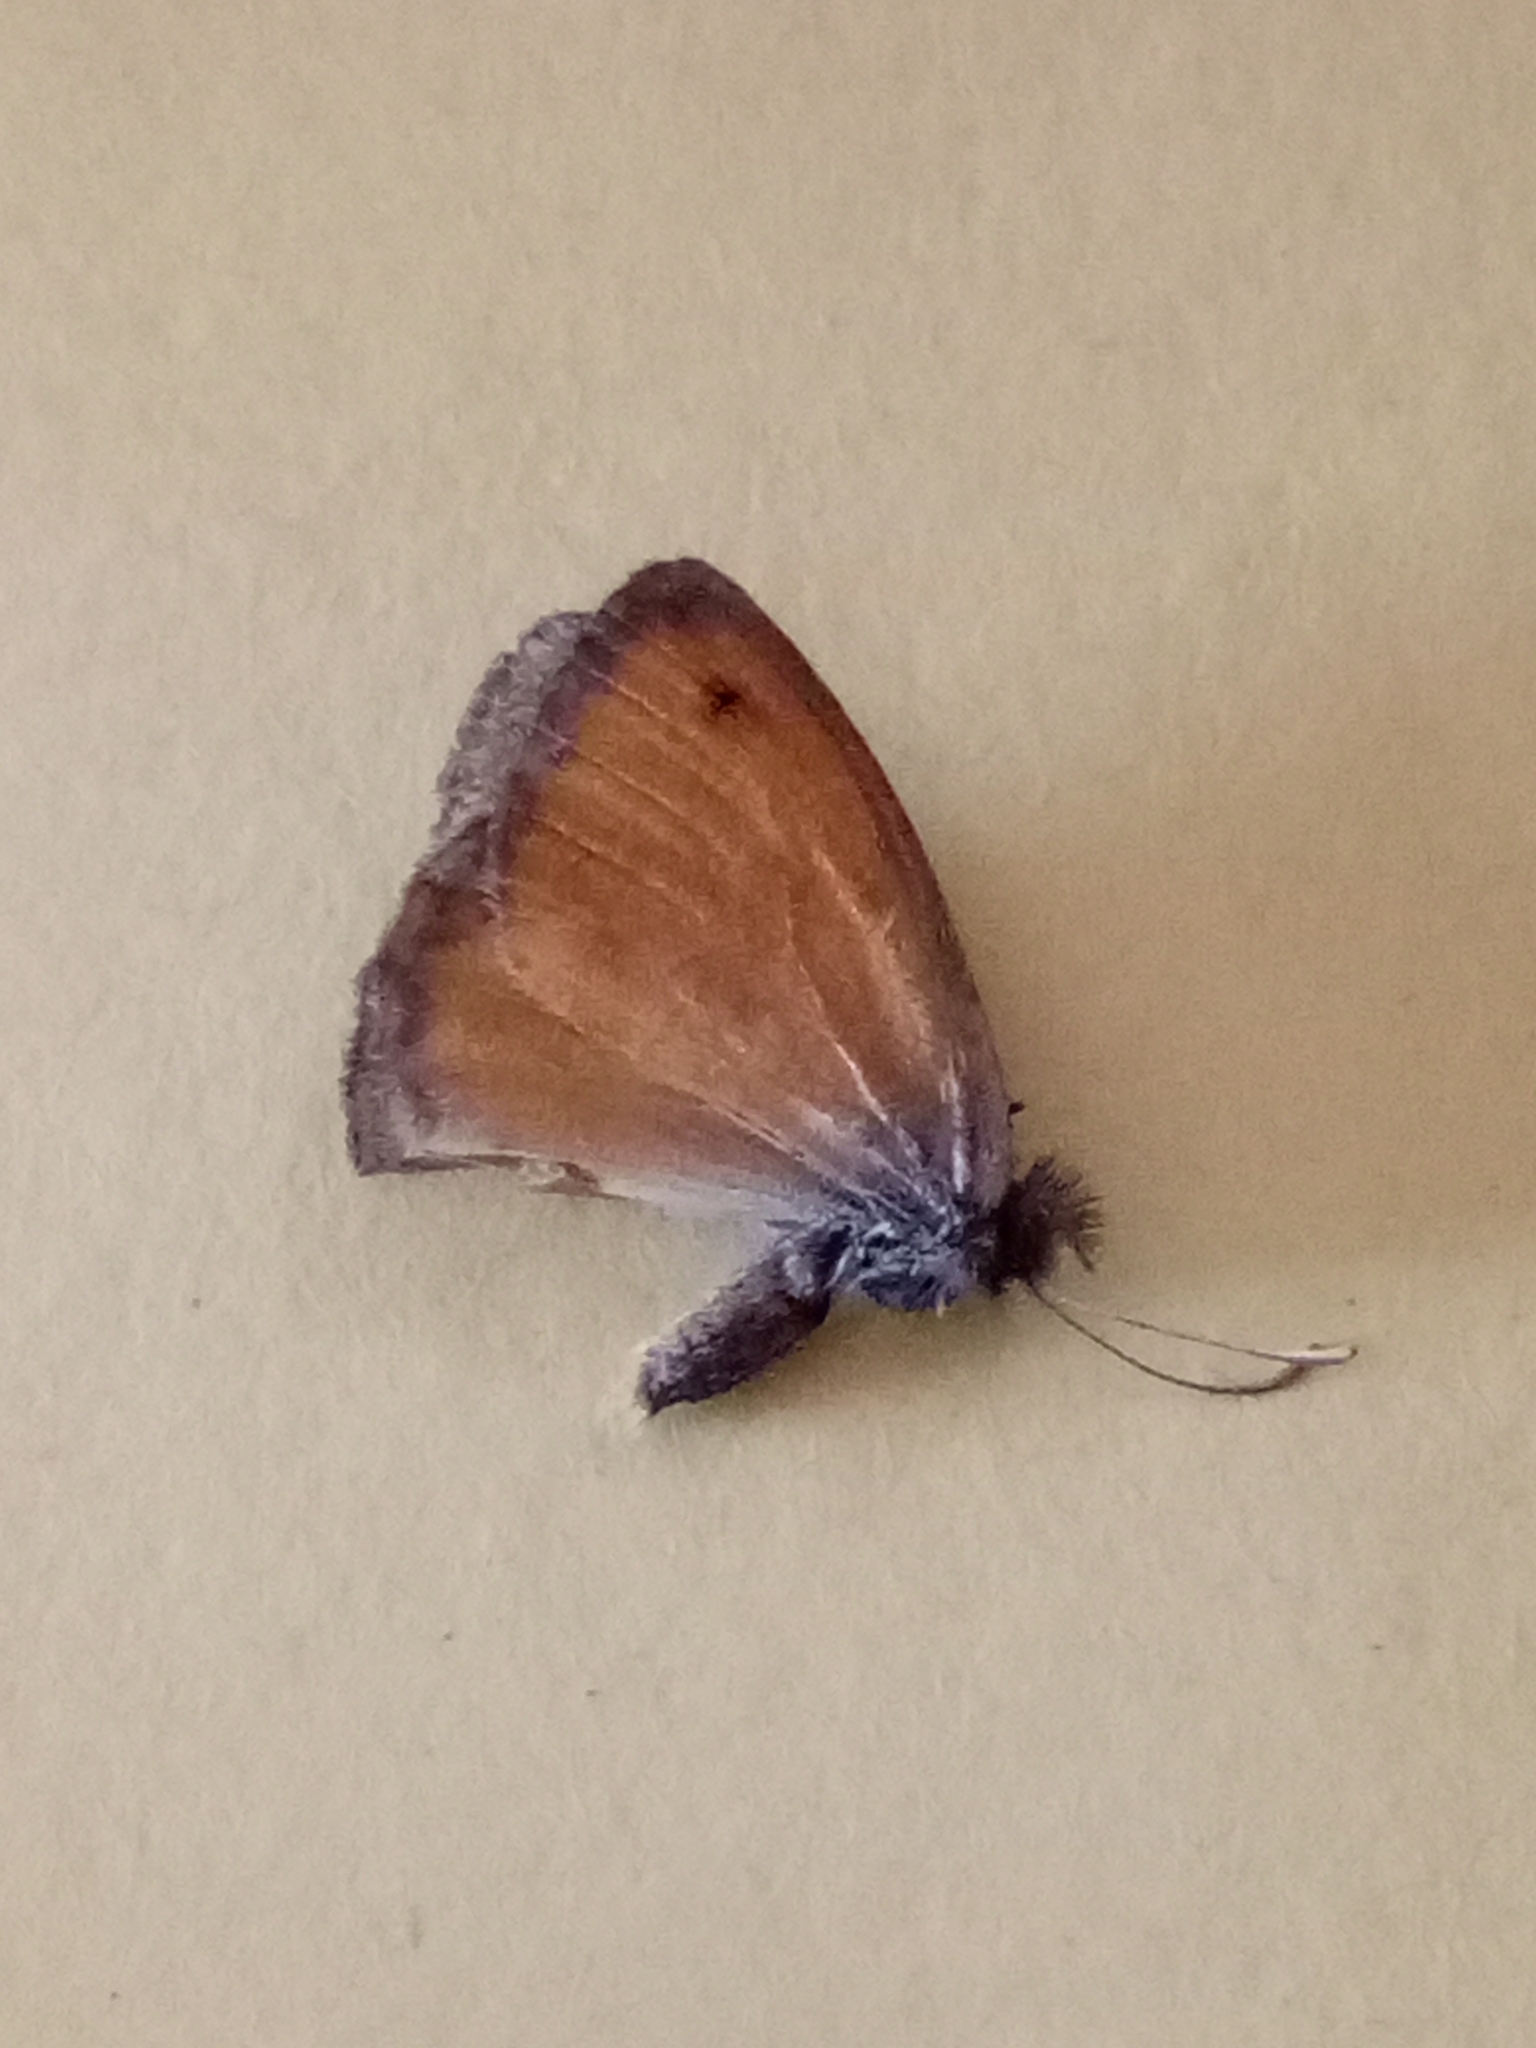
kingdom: Animalia
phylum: Arthropoda
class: Insecta
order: Lepidoptera
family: Nymphalidae
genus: Coenonympha
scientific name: Coenonympha pamphilus
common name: Small heath
